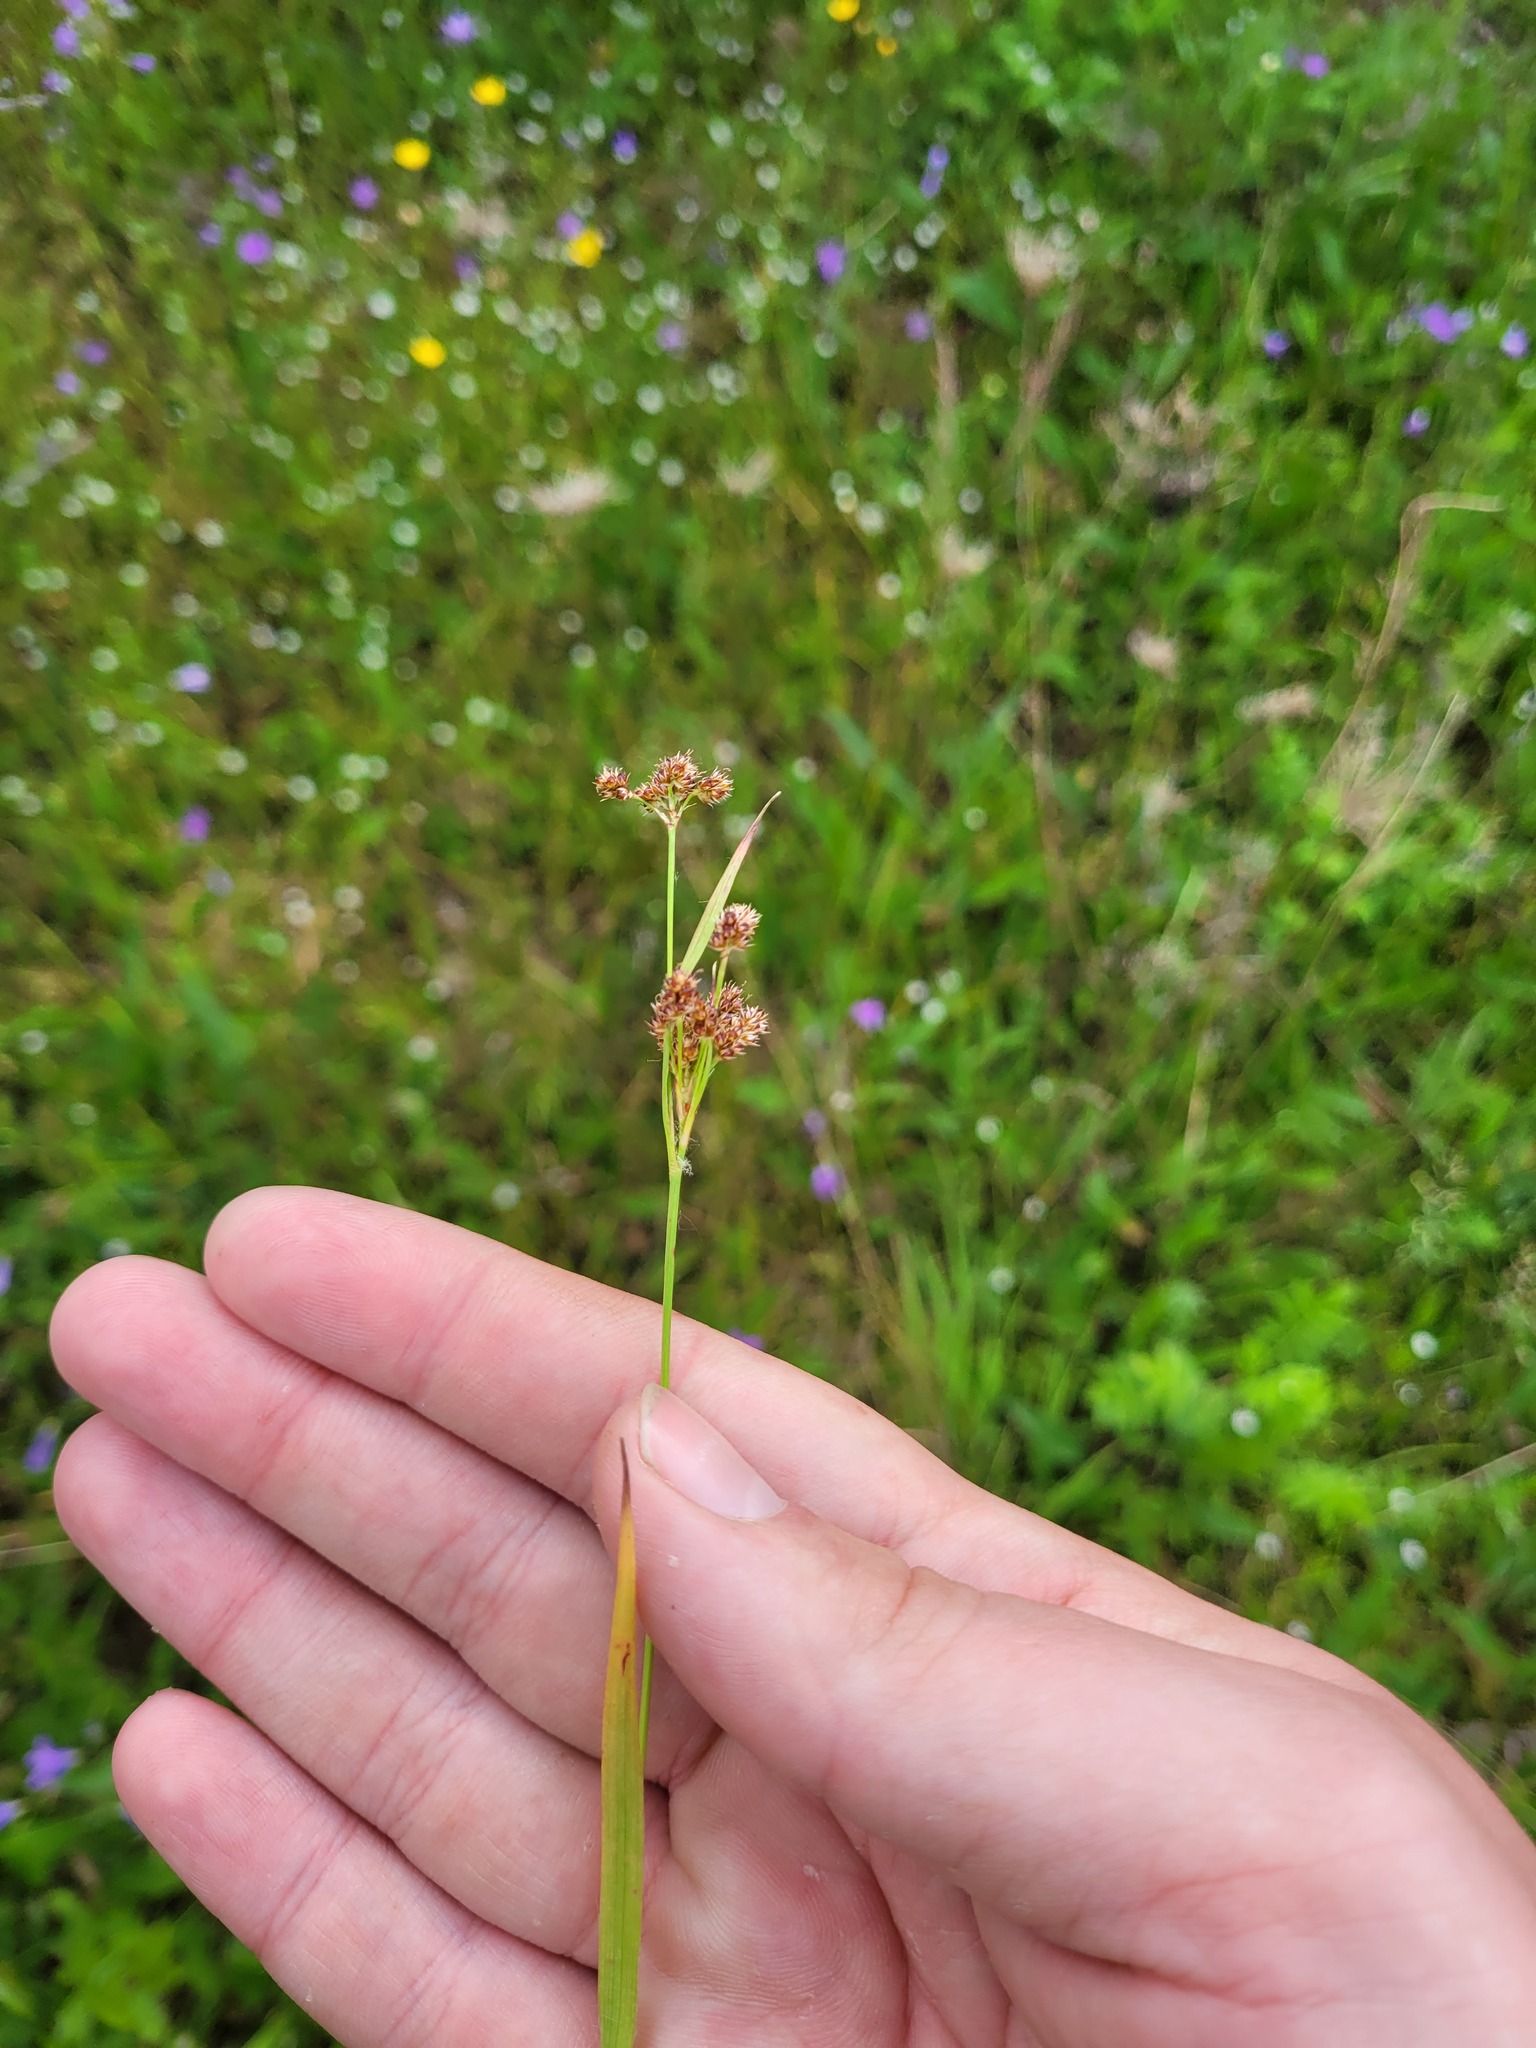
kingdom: Plantae
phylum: Tracheophyta
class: Liliopsida
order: Poales
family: Juncaceae
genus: Luzula
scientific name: Luzula pallescens
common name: Fen wood-rush
